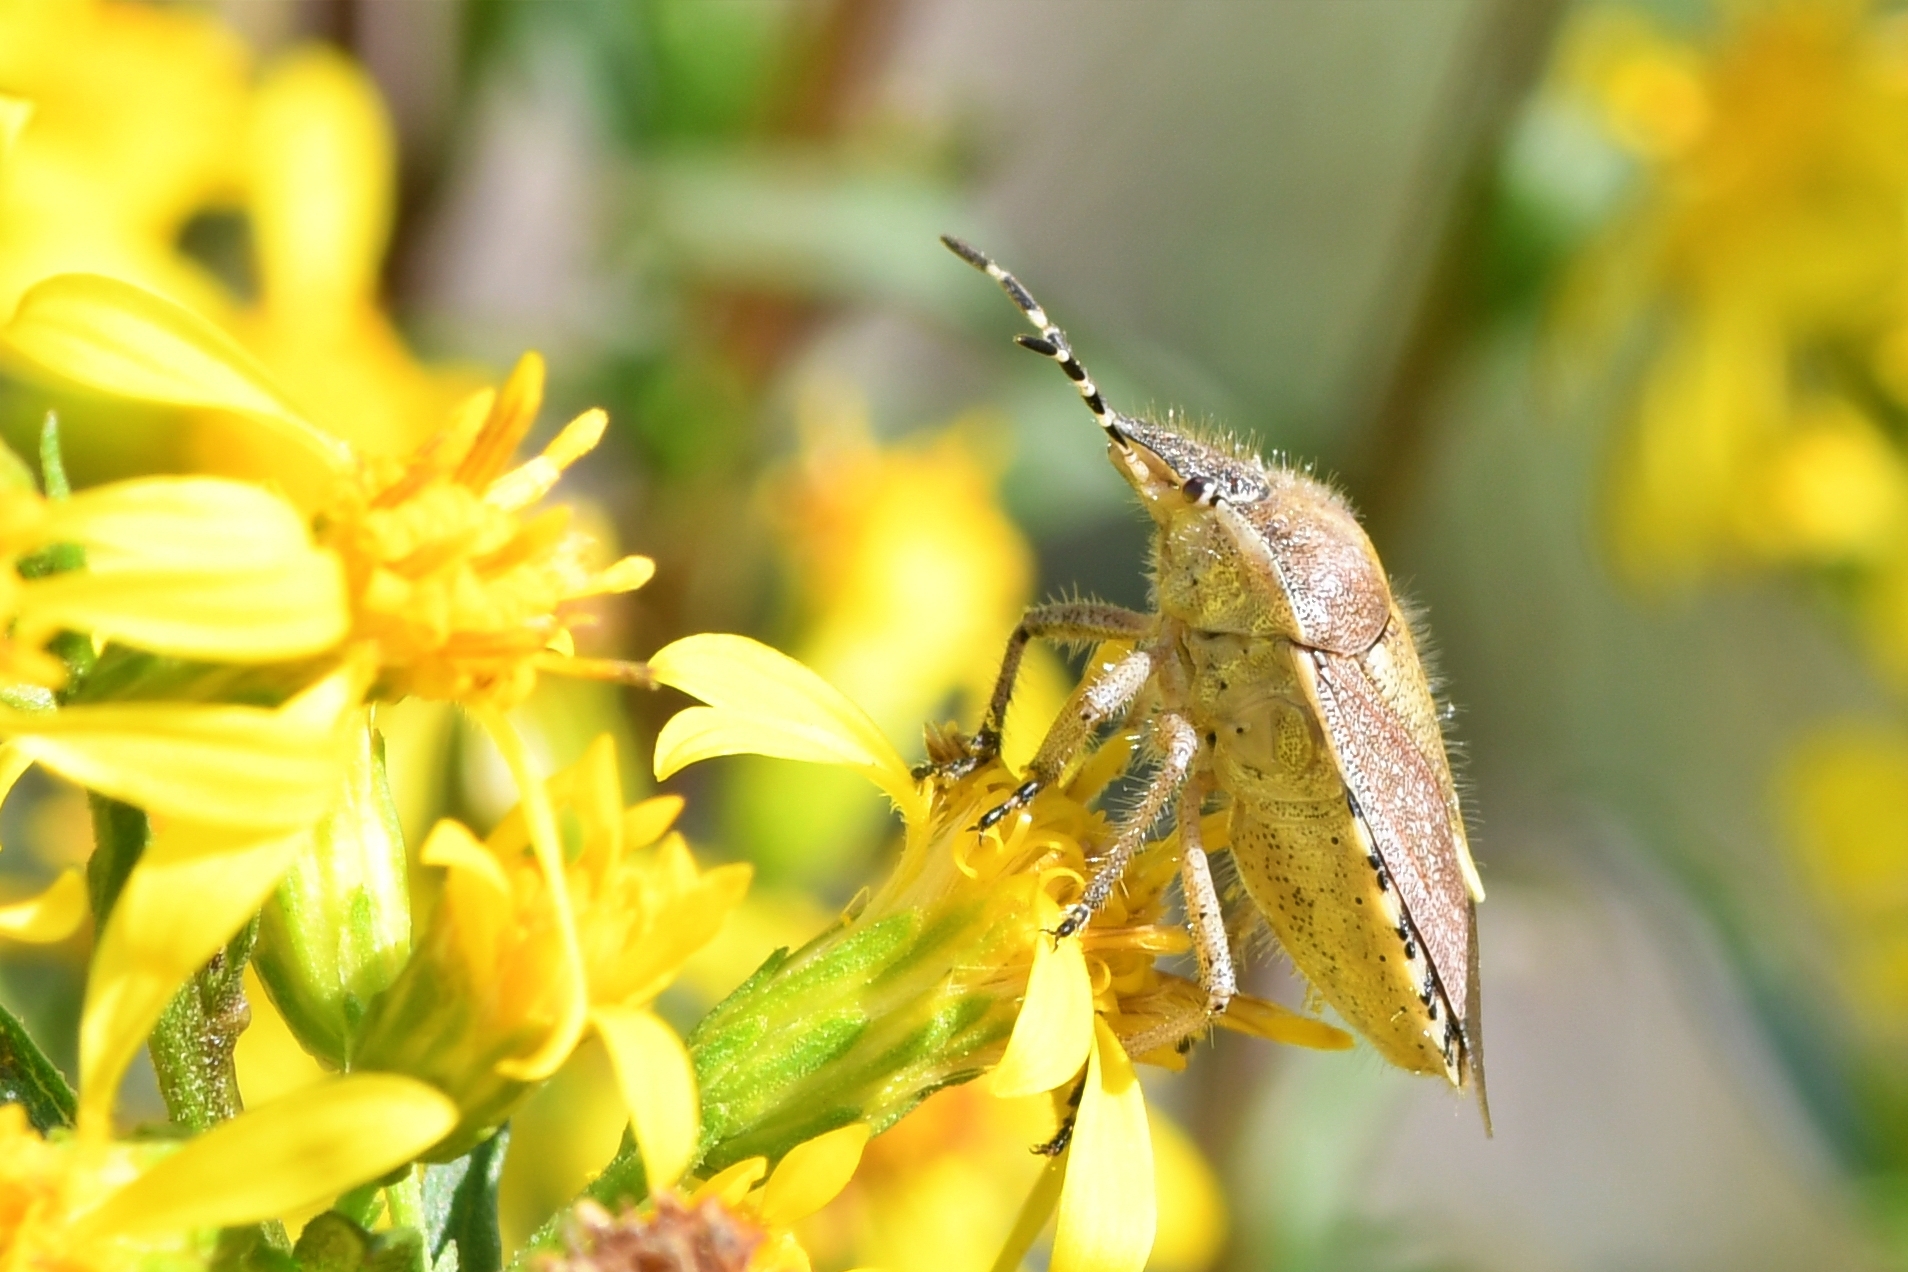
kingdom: Animalia
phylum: Arthropoda
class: Insecta
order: Hemiptera
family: Pentatomidae
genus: Dolycoris
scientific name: Dolycoris baccarum
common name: Sloe bug
